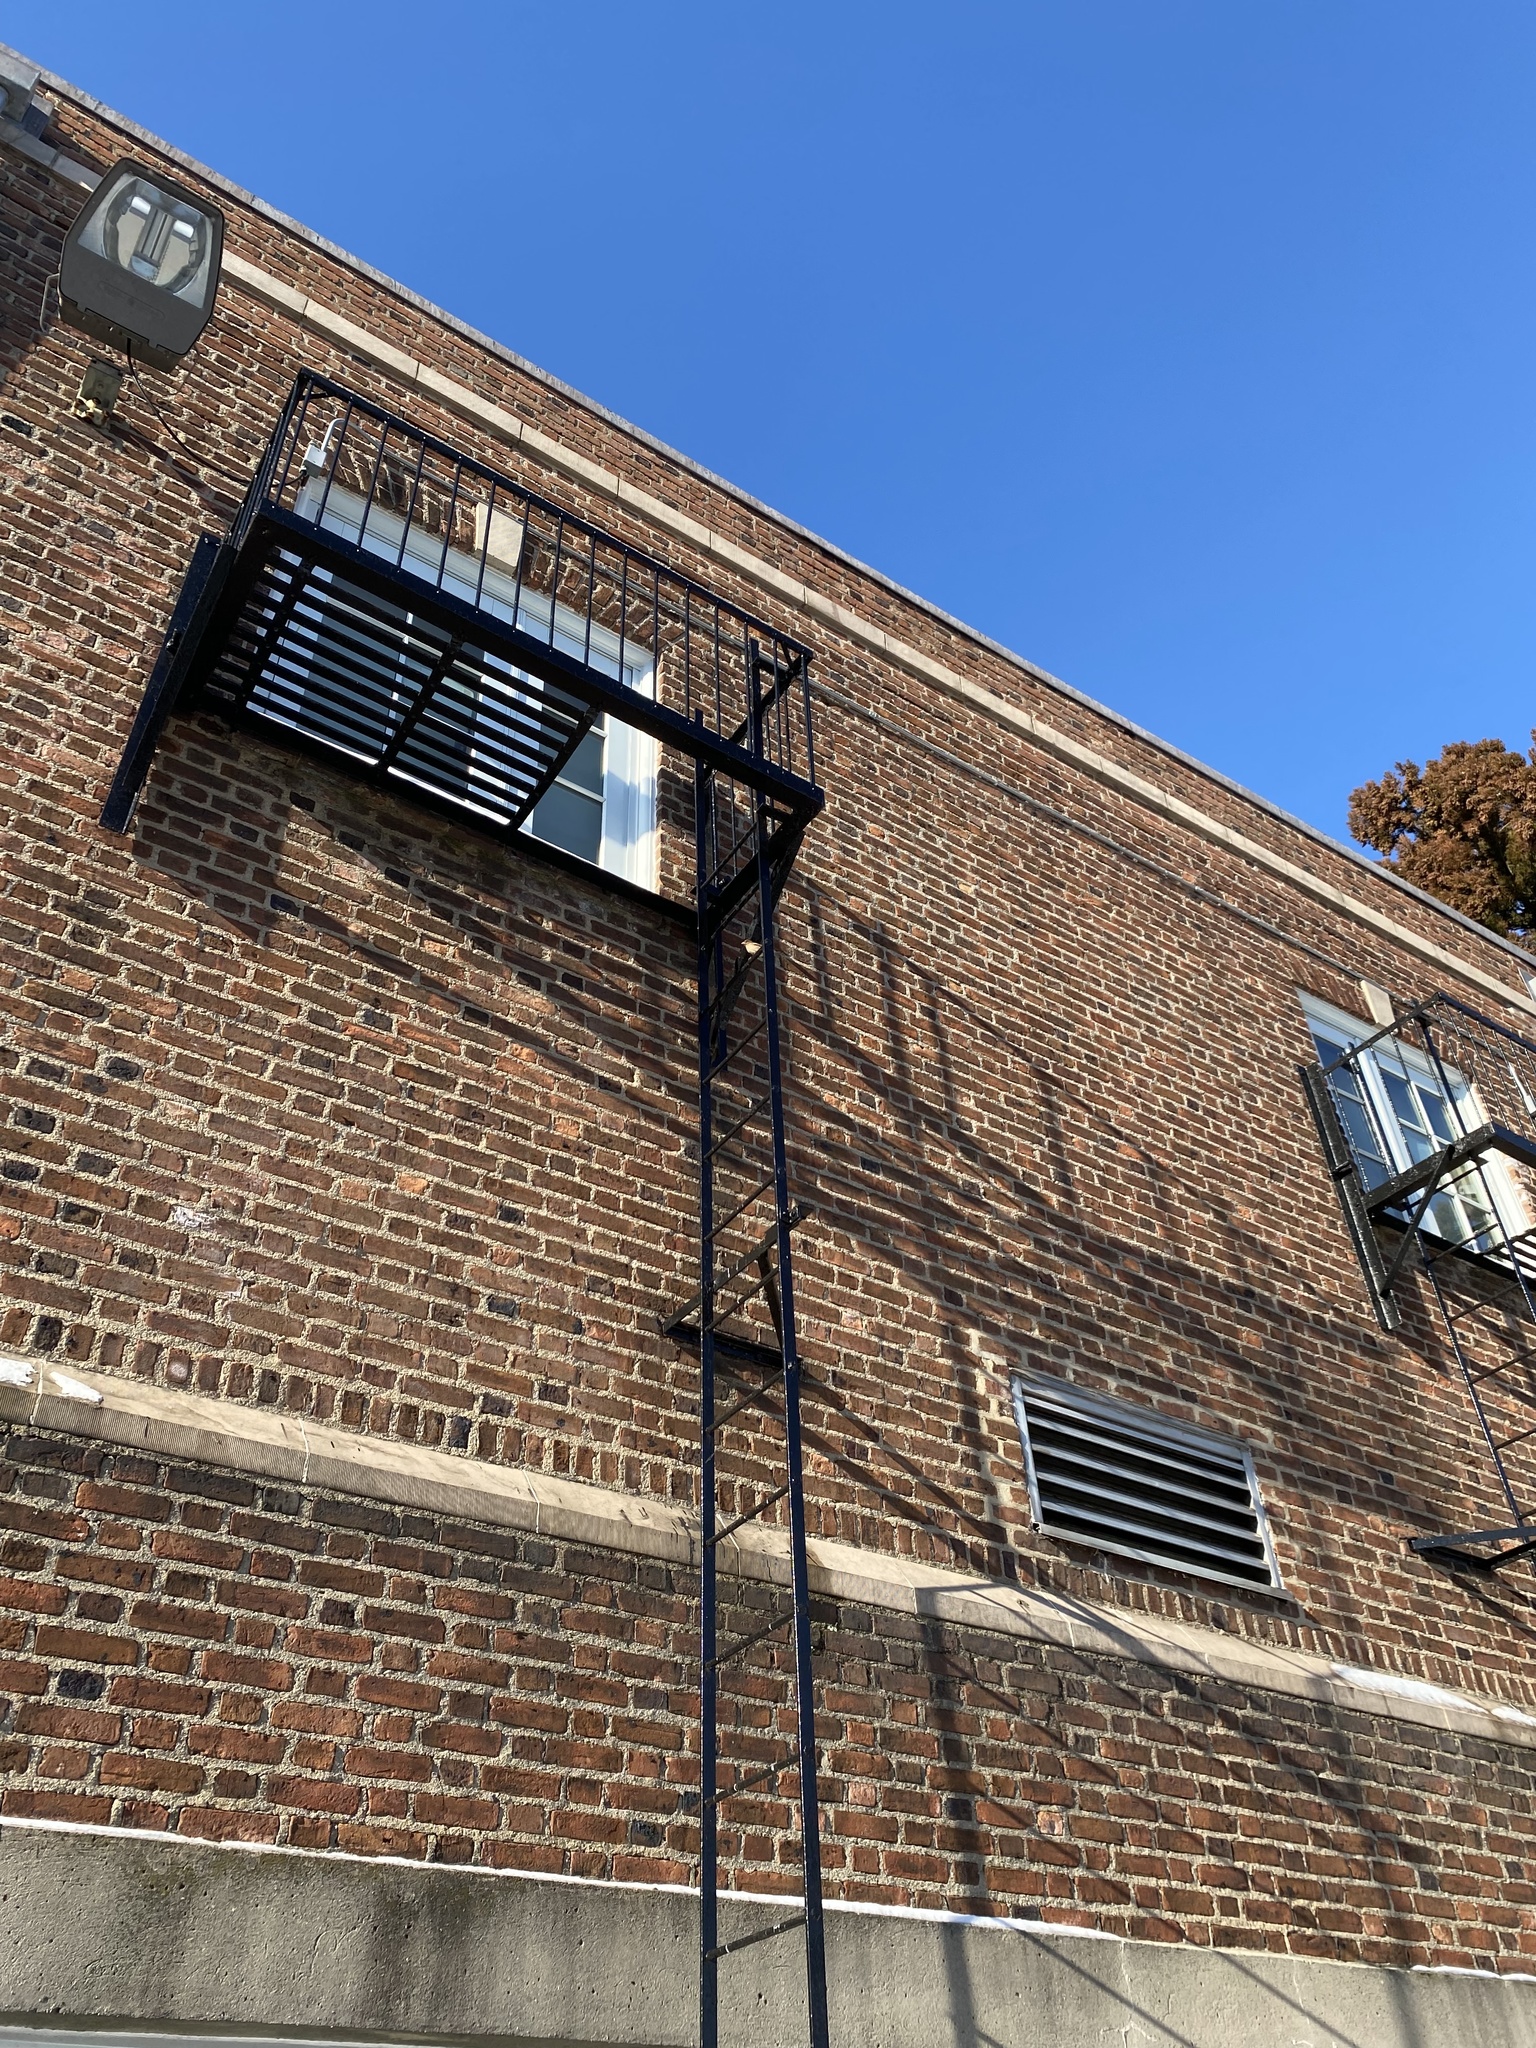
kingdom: Animalia
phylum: Chordata
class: Aves
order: Passeriformes
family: Passeridae
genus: Passer
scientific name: Passer domesticus
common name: House sparrow
